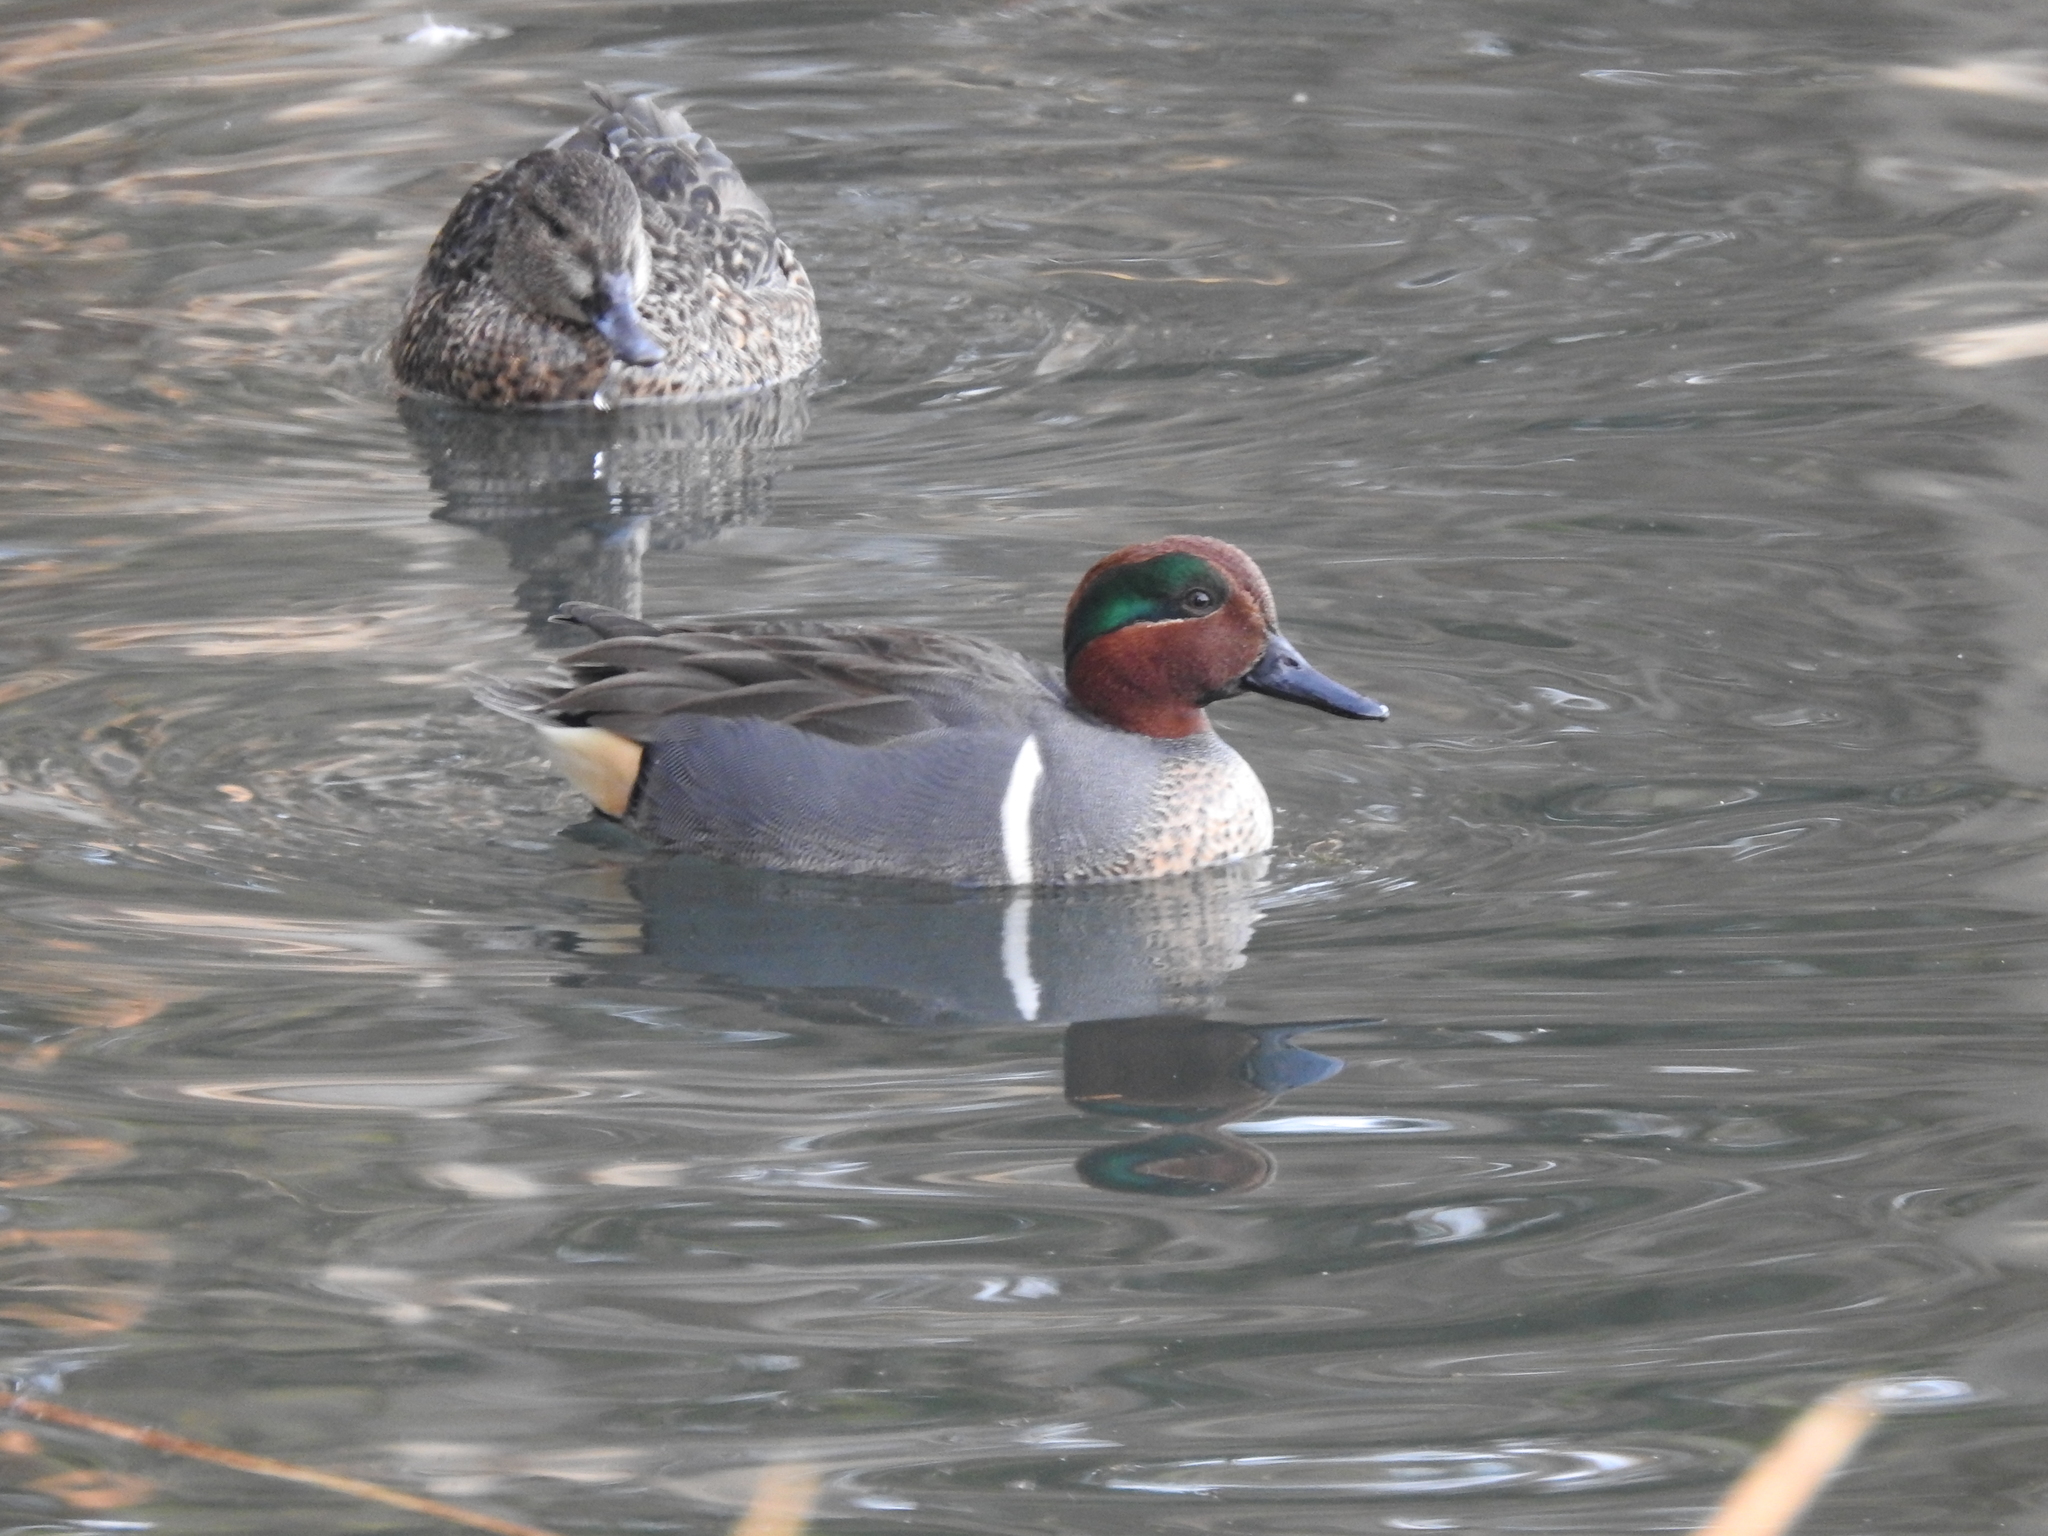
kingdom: Animalia
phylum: Chordata
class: Aves
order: Anseriformes
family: Anatidae
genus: Anas
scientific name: Anas crecca
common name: Eurasian teal
